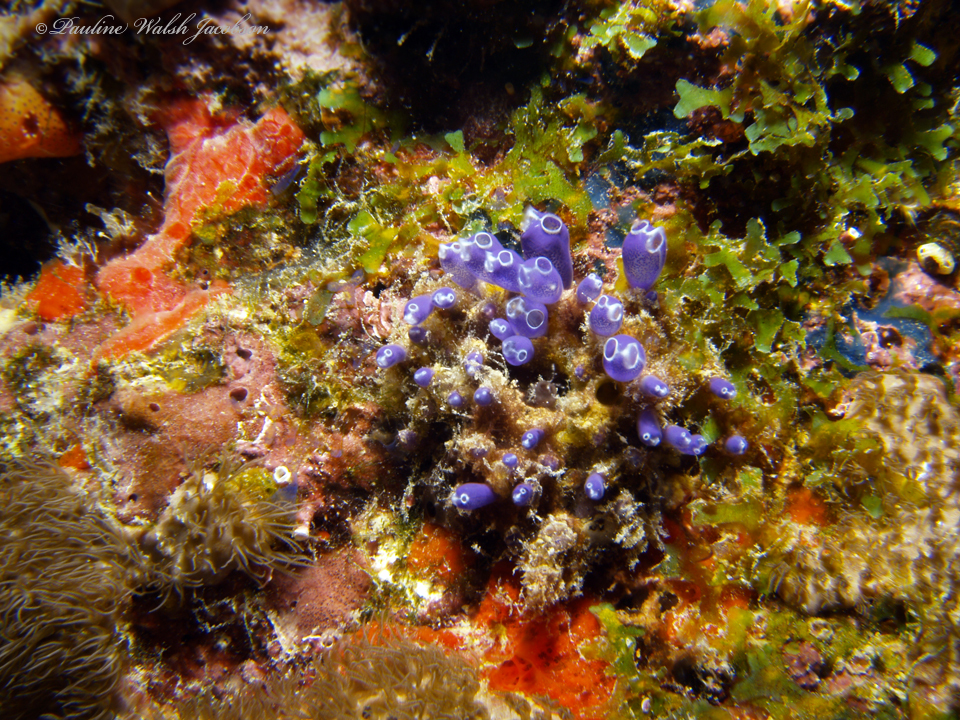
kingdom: Animalia
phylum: Chordata
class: Ascidiacea
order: Aplousobranchia
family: Clavelinidae
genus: Clavelina
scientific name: Clavelina puertosecensis
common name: Blue bell tunicate
